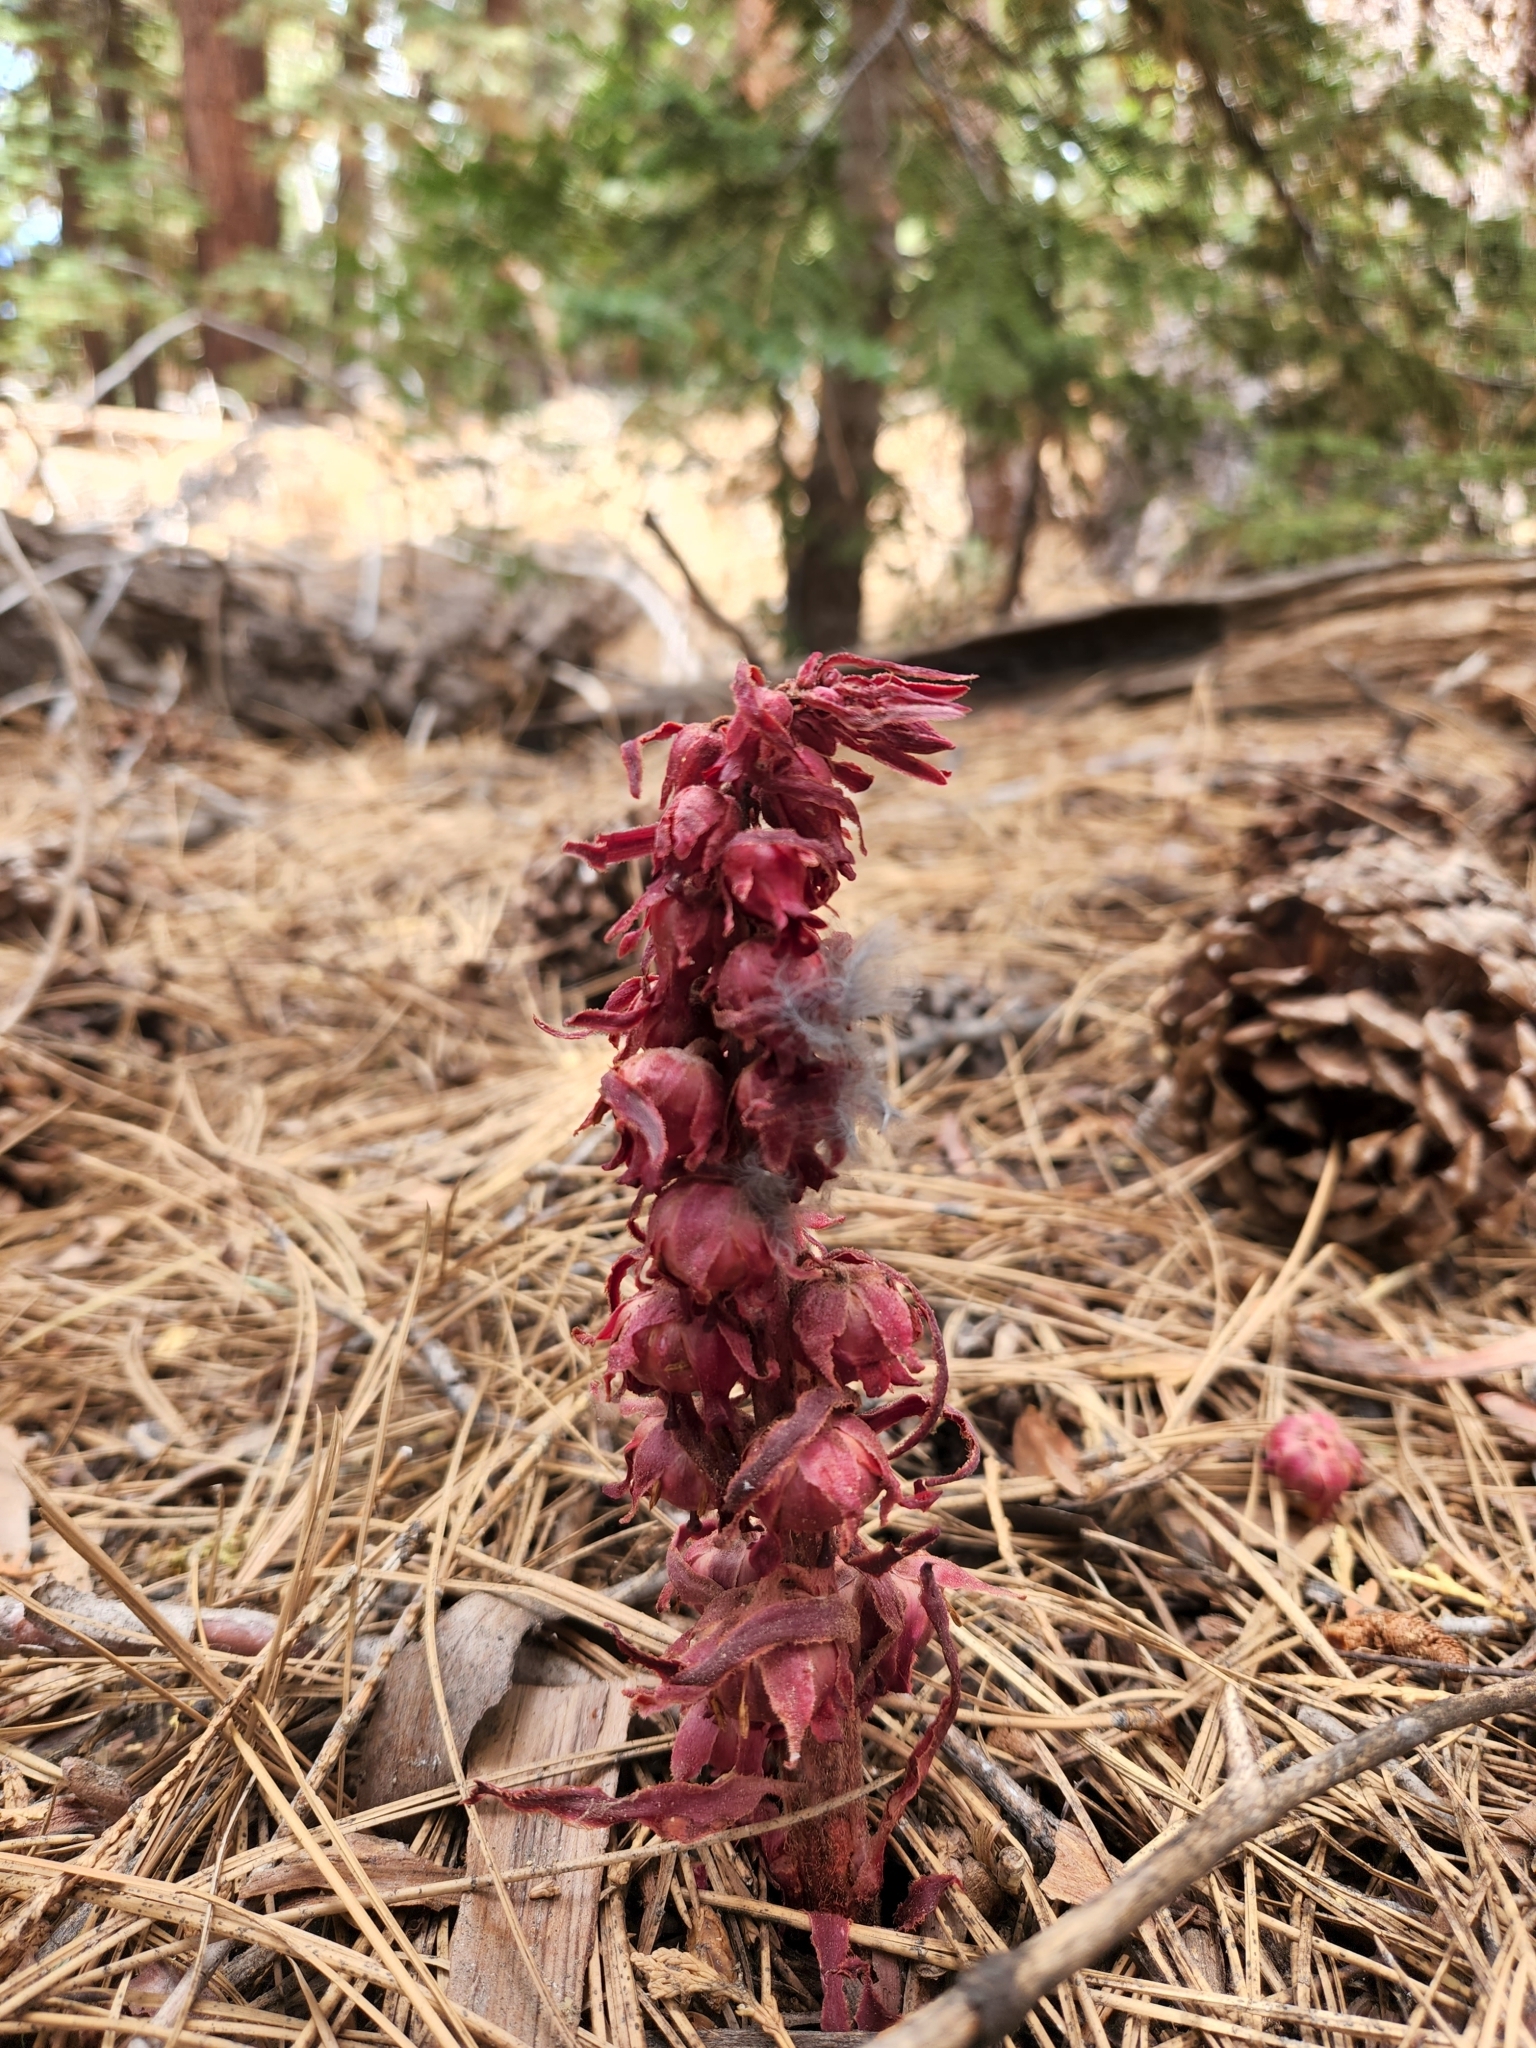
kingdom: Plantae
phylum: Tracheophyta
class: Magnoliopsida
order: Ericales
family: Ericaceae
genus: Sarcodes
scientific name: Sarcodes sanguinea
